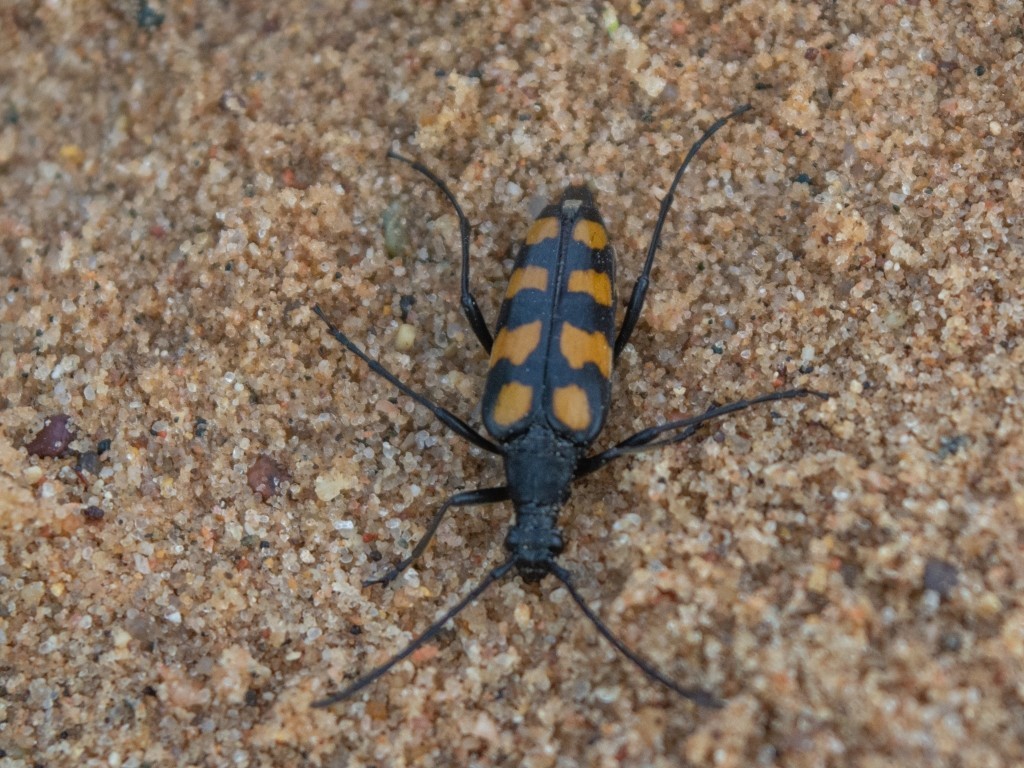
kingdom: Animalia
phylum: Arthropoda
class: Insecta
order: Coleoptera
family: Cerambycidae
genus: Leptura
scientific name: Leptura quadrifasciata
